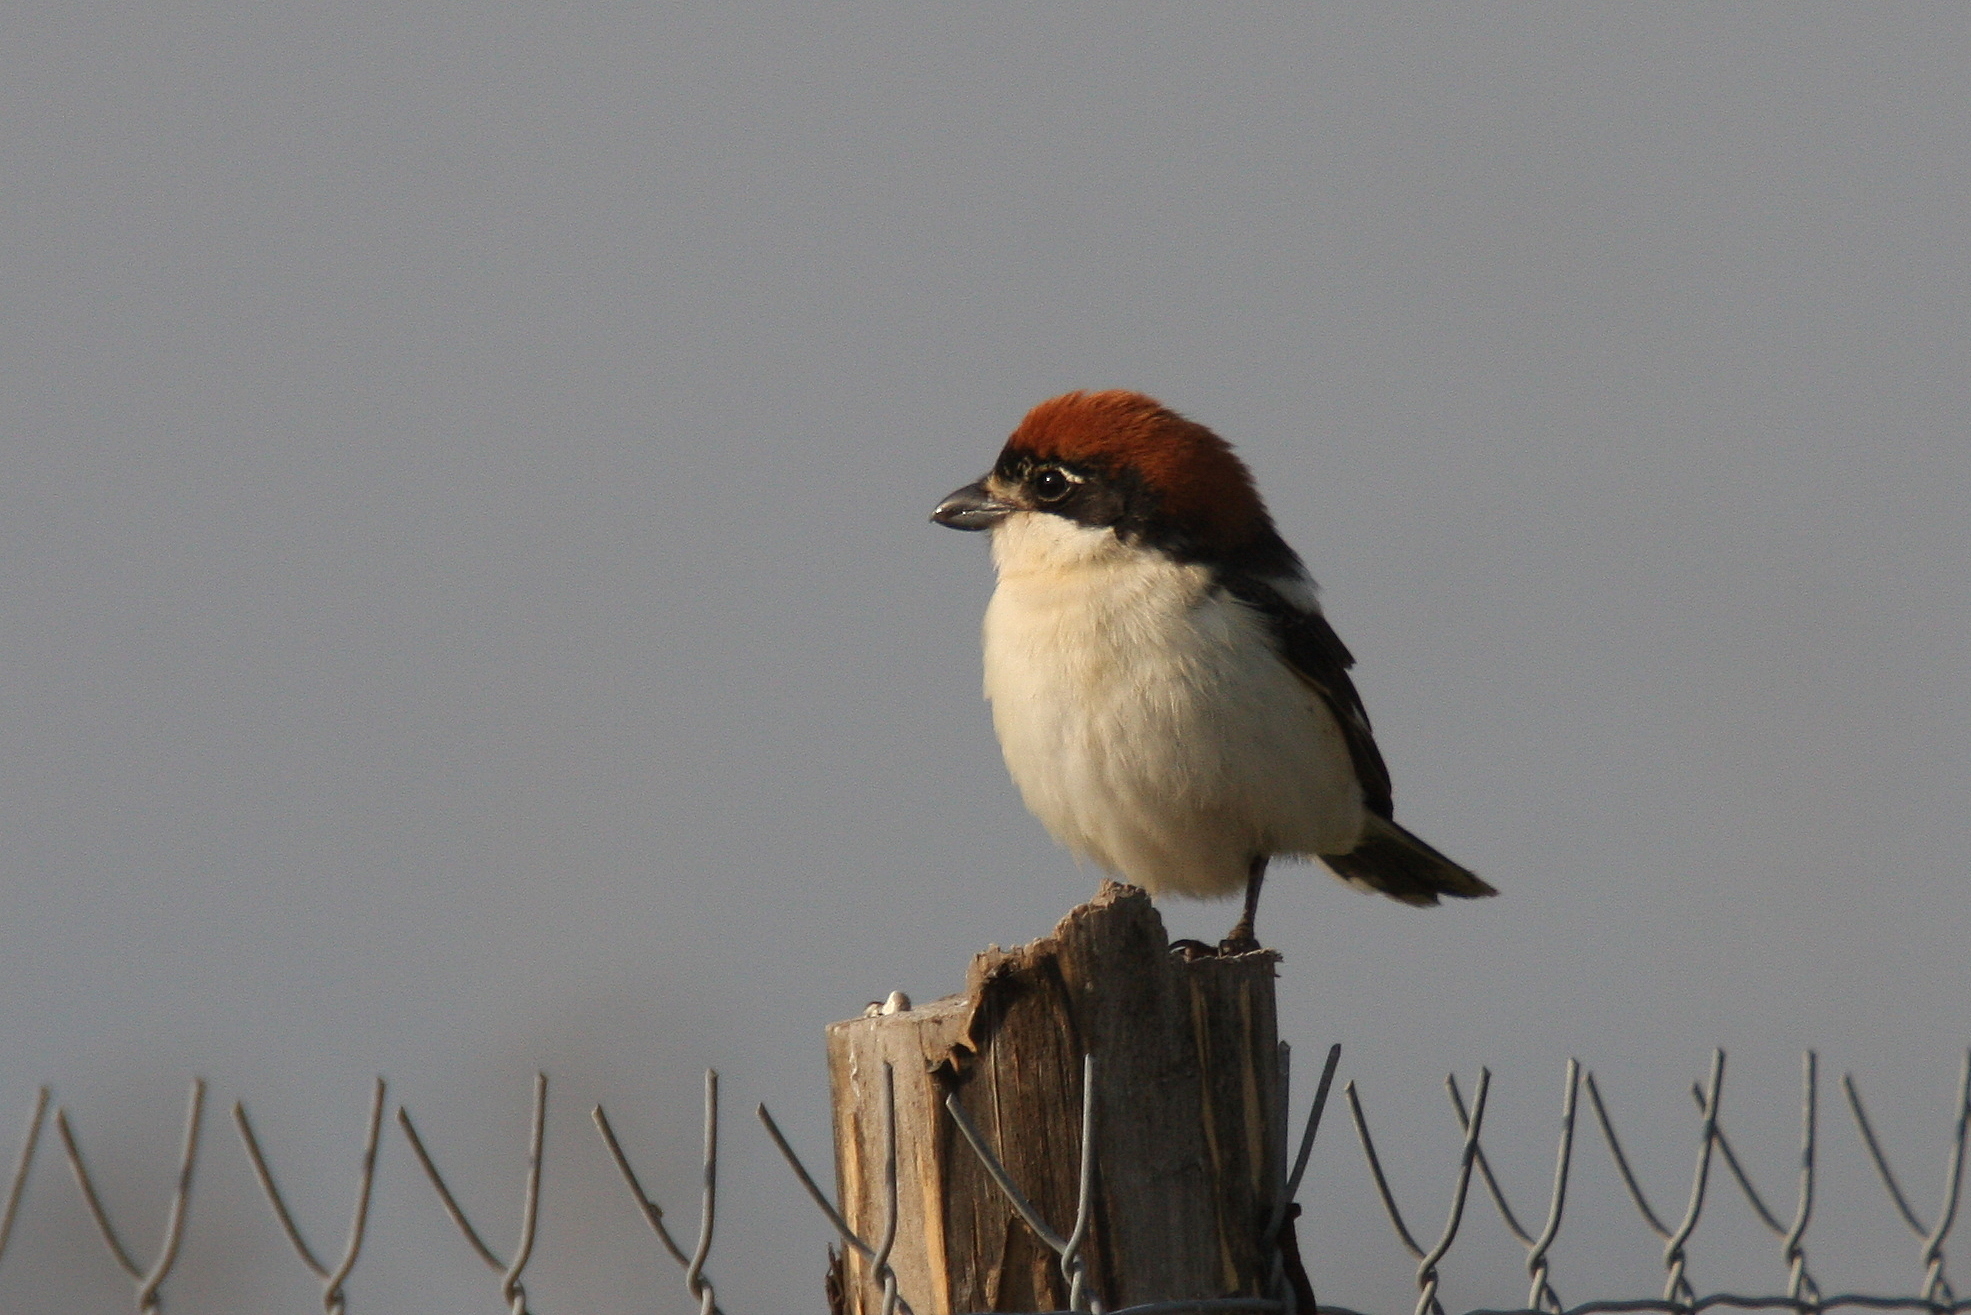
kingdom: Animalia
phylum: Chordata
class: Aves
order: Passeriformes
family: Laniidae
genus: Lanius
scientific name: Lanius senator
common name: Woodchat shrike
